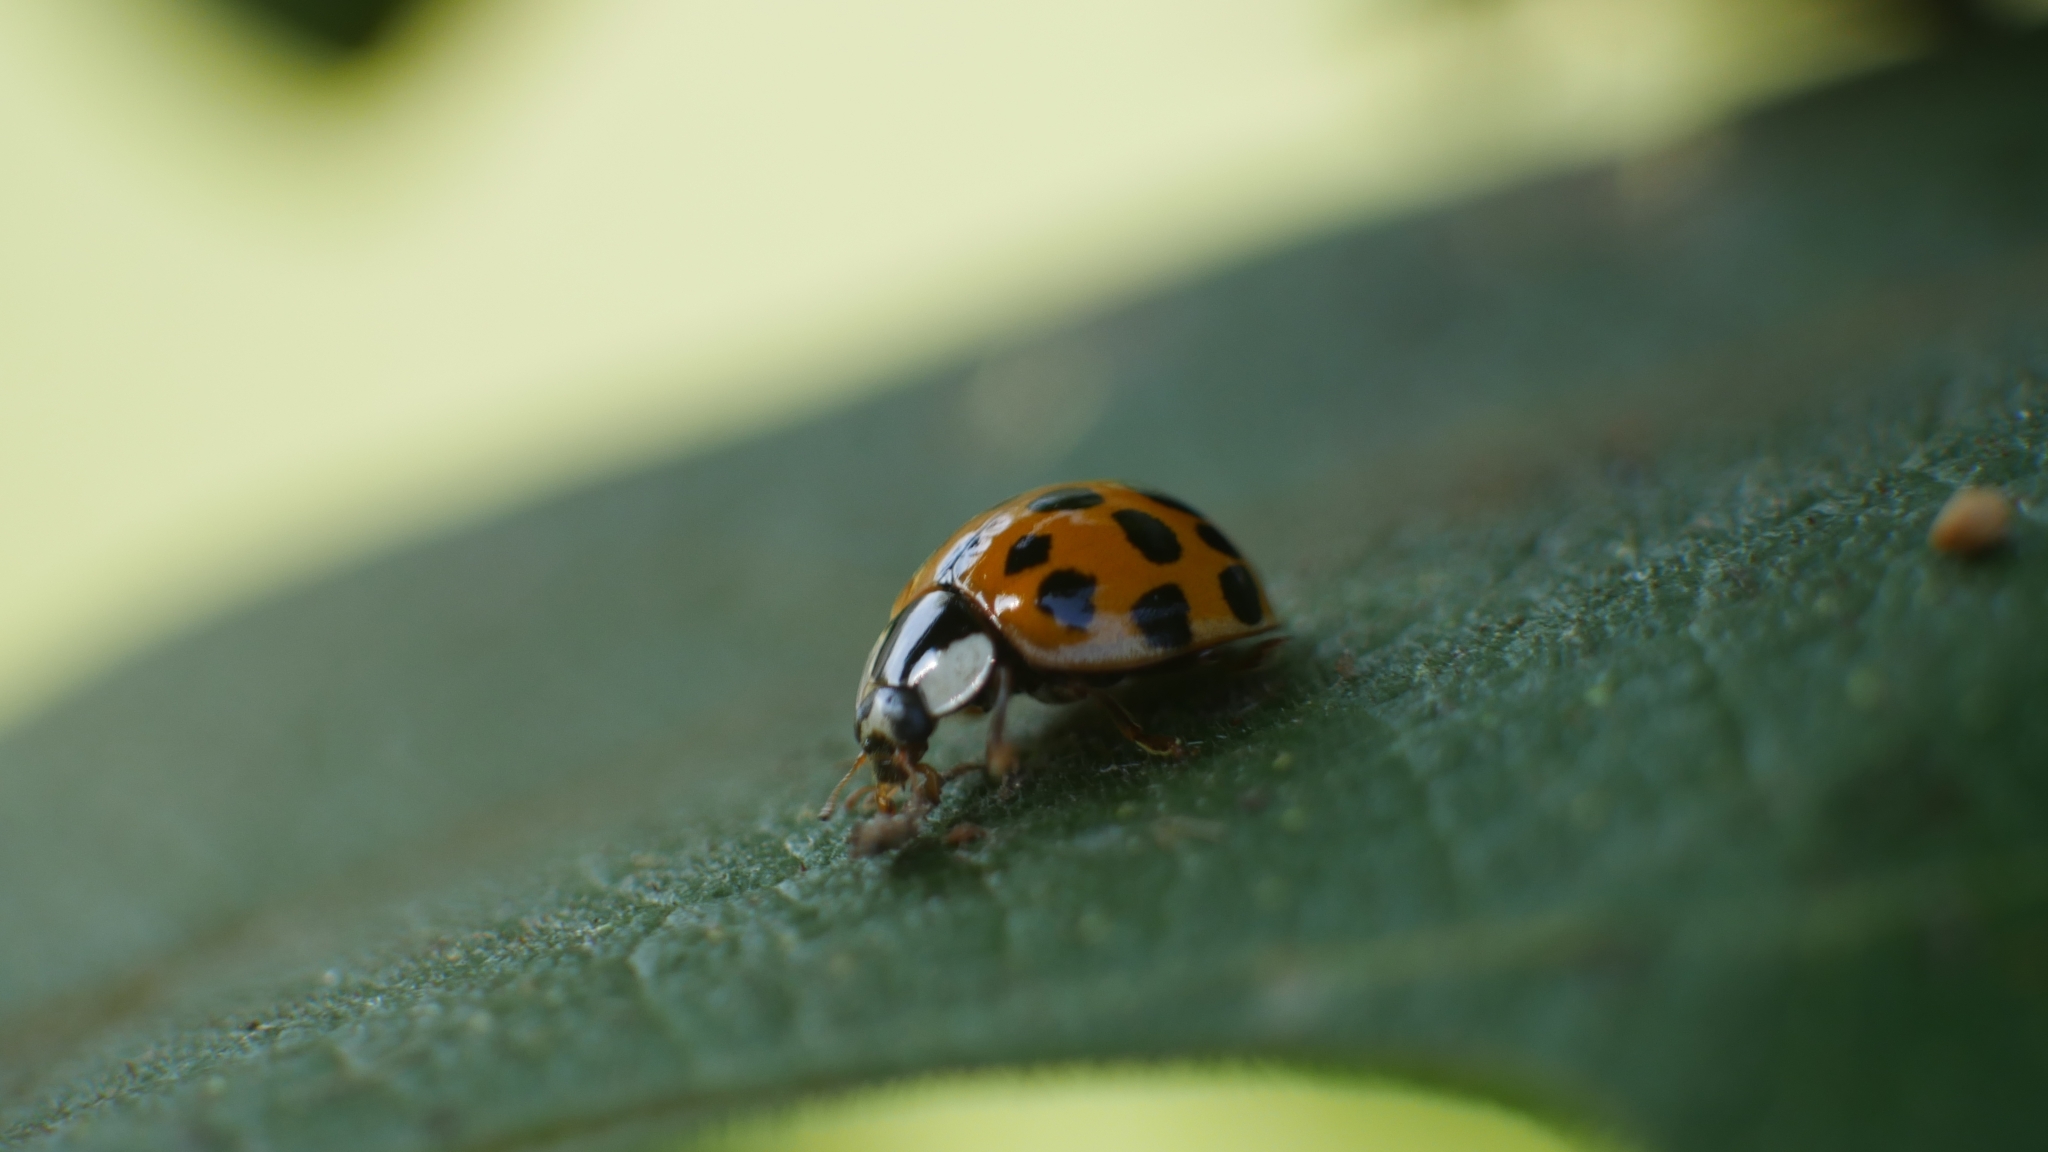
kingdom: Animalia
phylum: Arthropoda
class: Insecta
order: Coleoptera
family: Coccinellidae
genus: Harmonia
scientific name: Harmonia axyridis
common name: Harlequin ladybird
